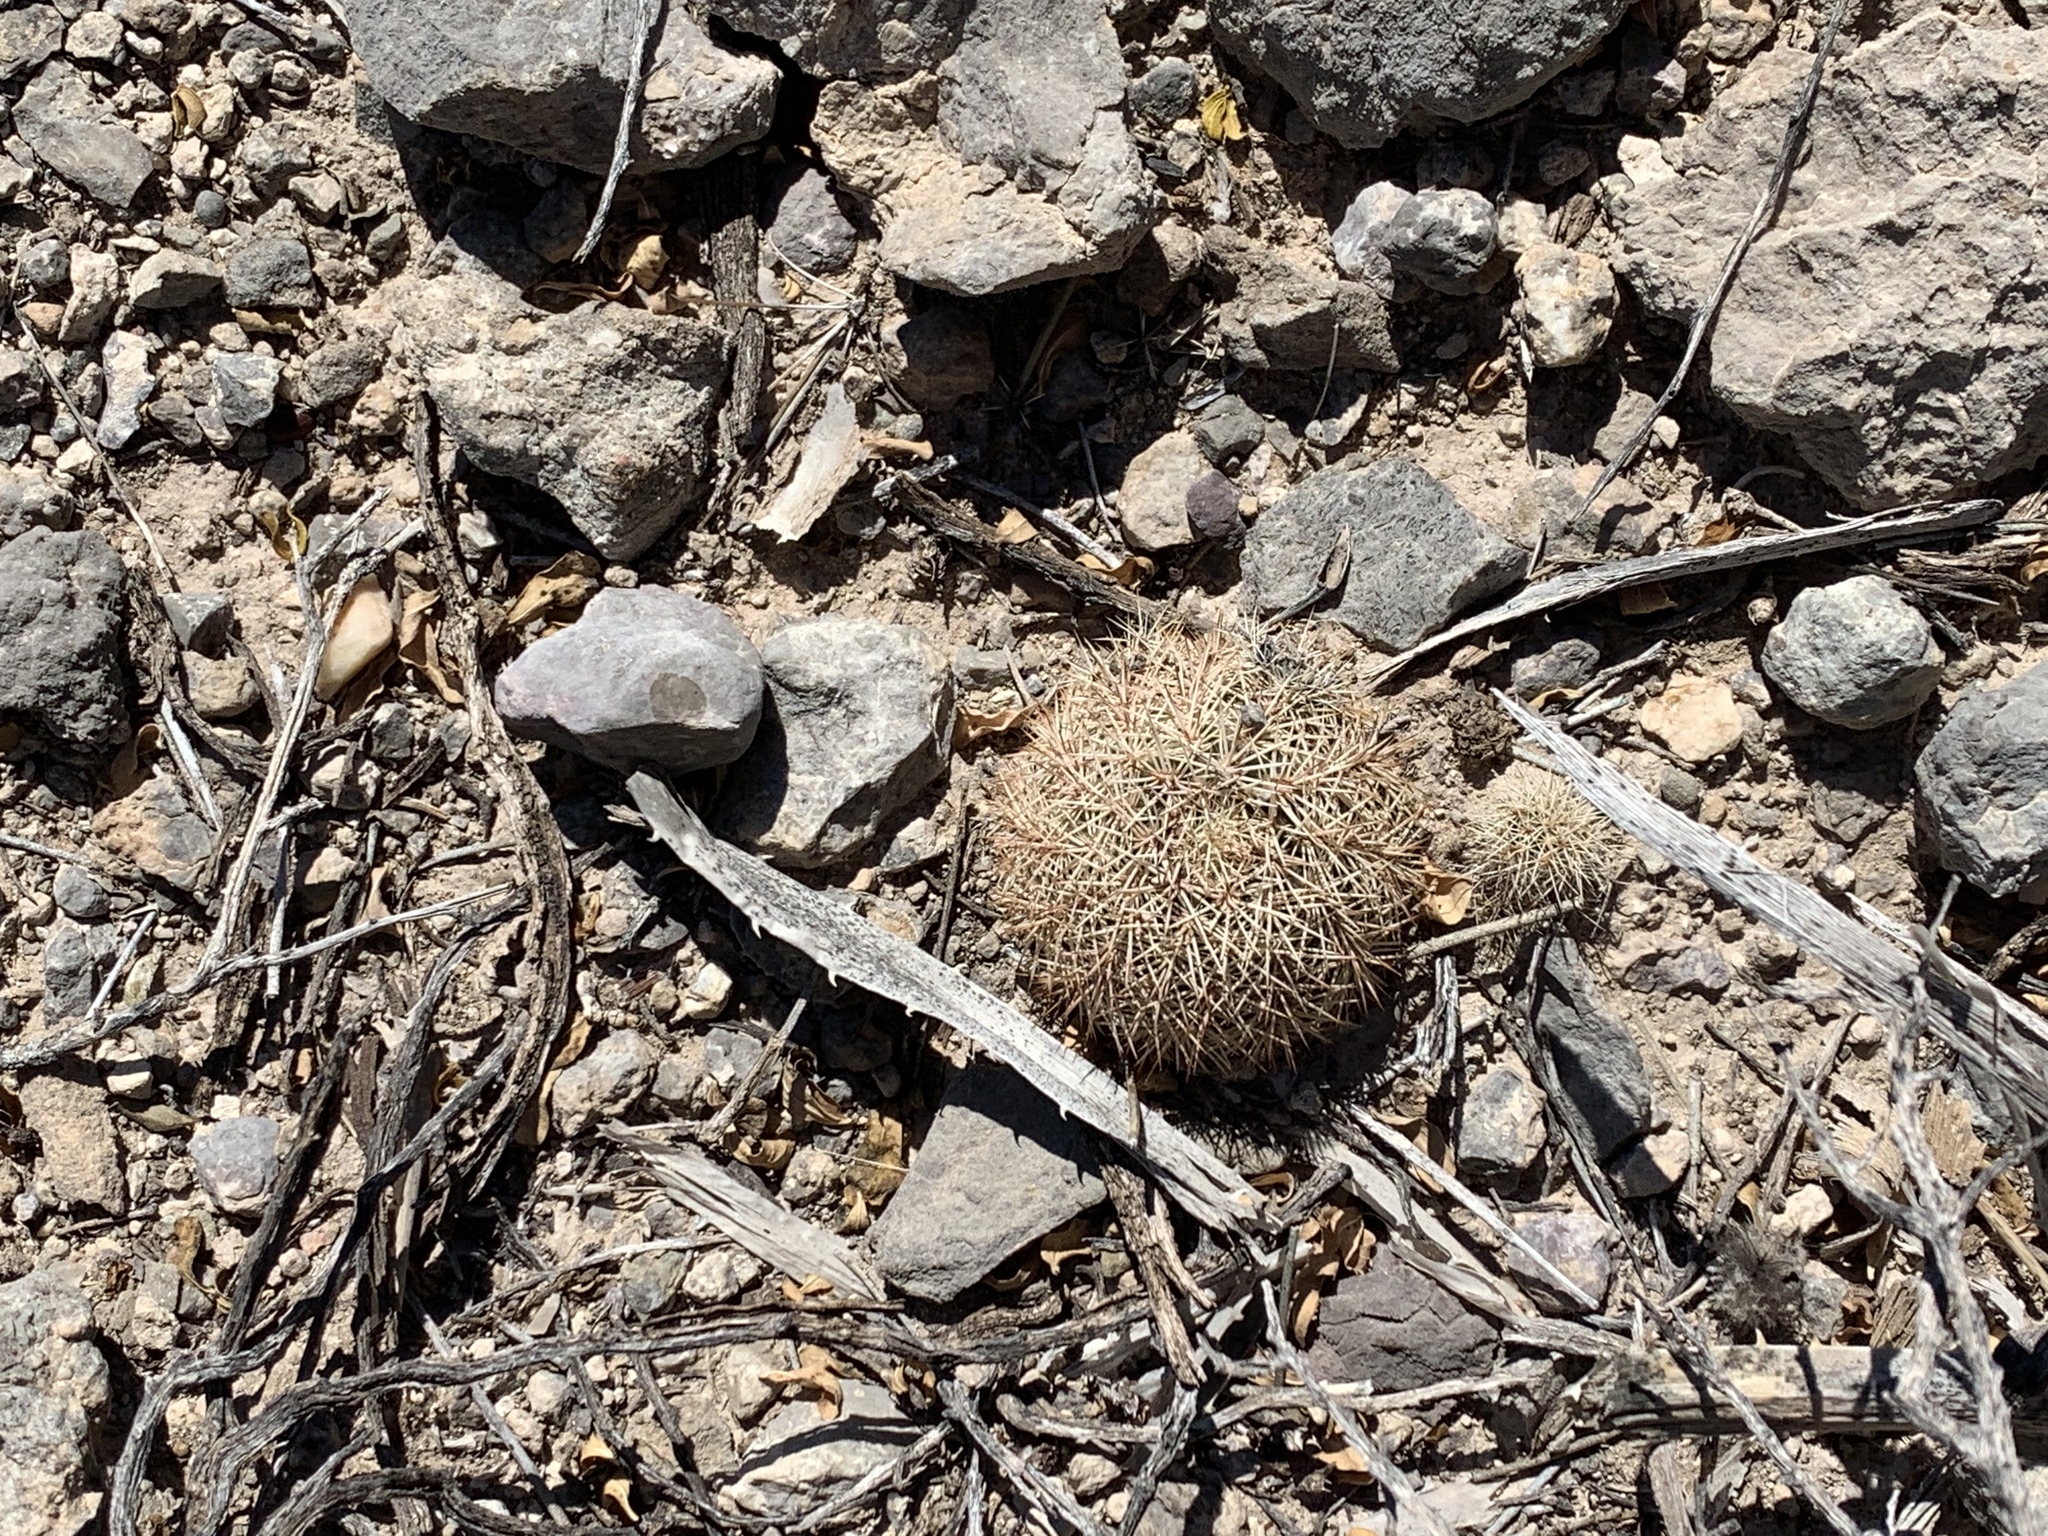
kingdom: Plantae
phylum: Tracheophyta
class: Magnoliopsida
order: Caryophyllales
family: Cactaceae
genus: Echinocereus
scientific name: Echinocereus dasyacanthus
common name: Spiny hedgehog cactus
